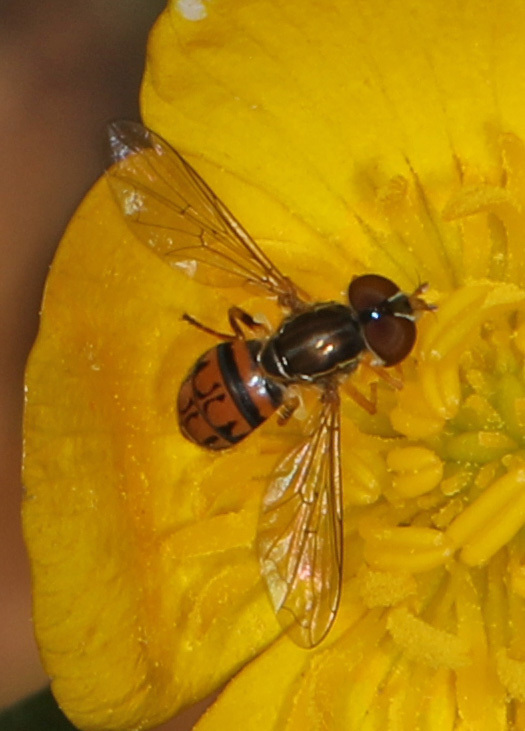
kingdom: Animalia
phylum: Arthropoda
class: Insecta
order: Diptera
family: Syrphidae
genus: Toxomerus
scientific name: Toxomerus boscii
